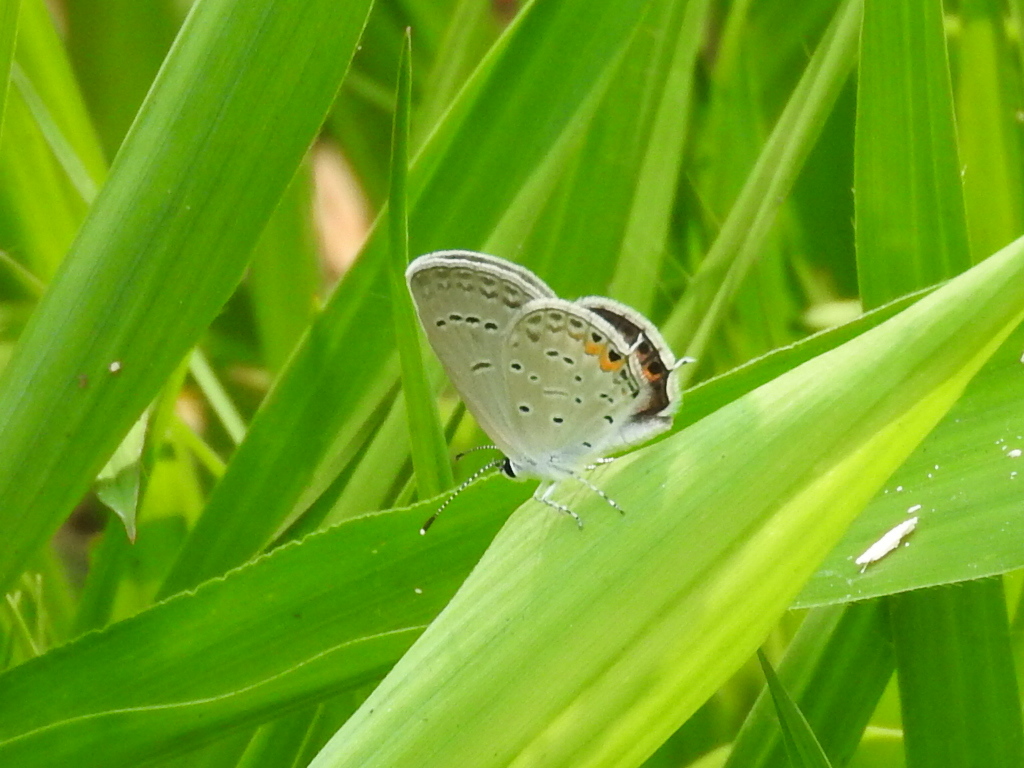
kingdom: Animalia
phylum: Arthropoda
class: Insecta
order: Lepidoptera
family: Lycaenidae
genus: Elkalyce
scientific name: Elkalyce comyntas
